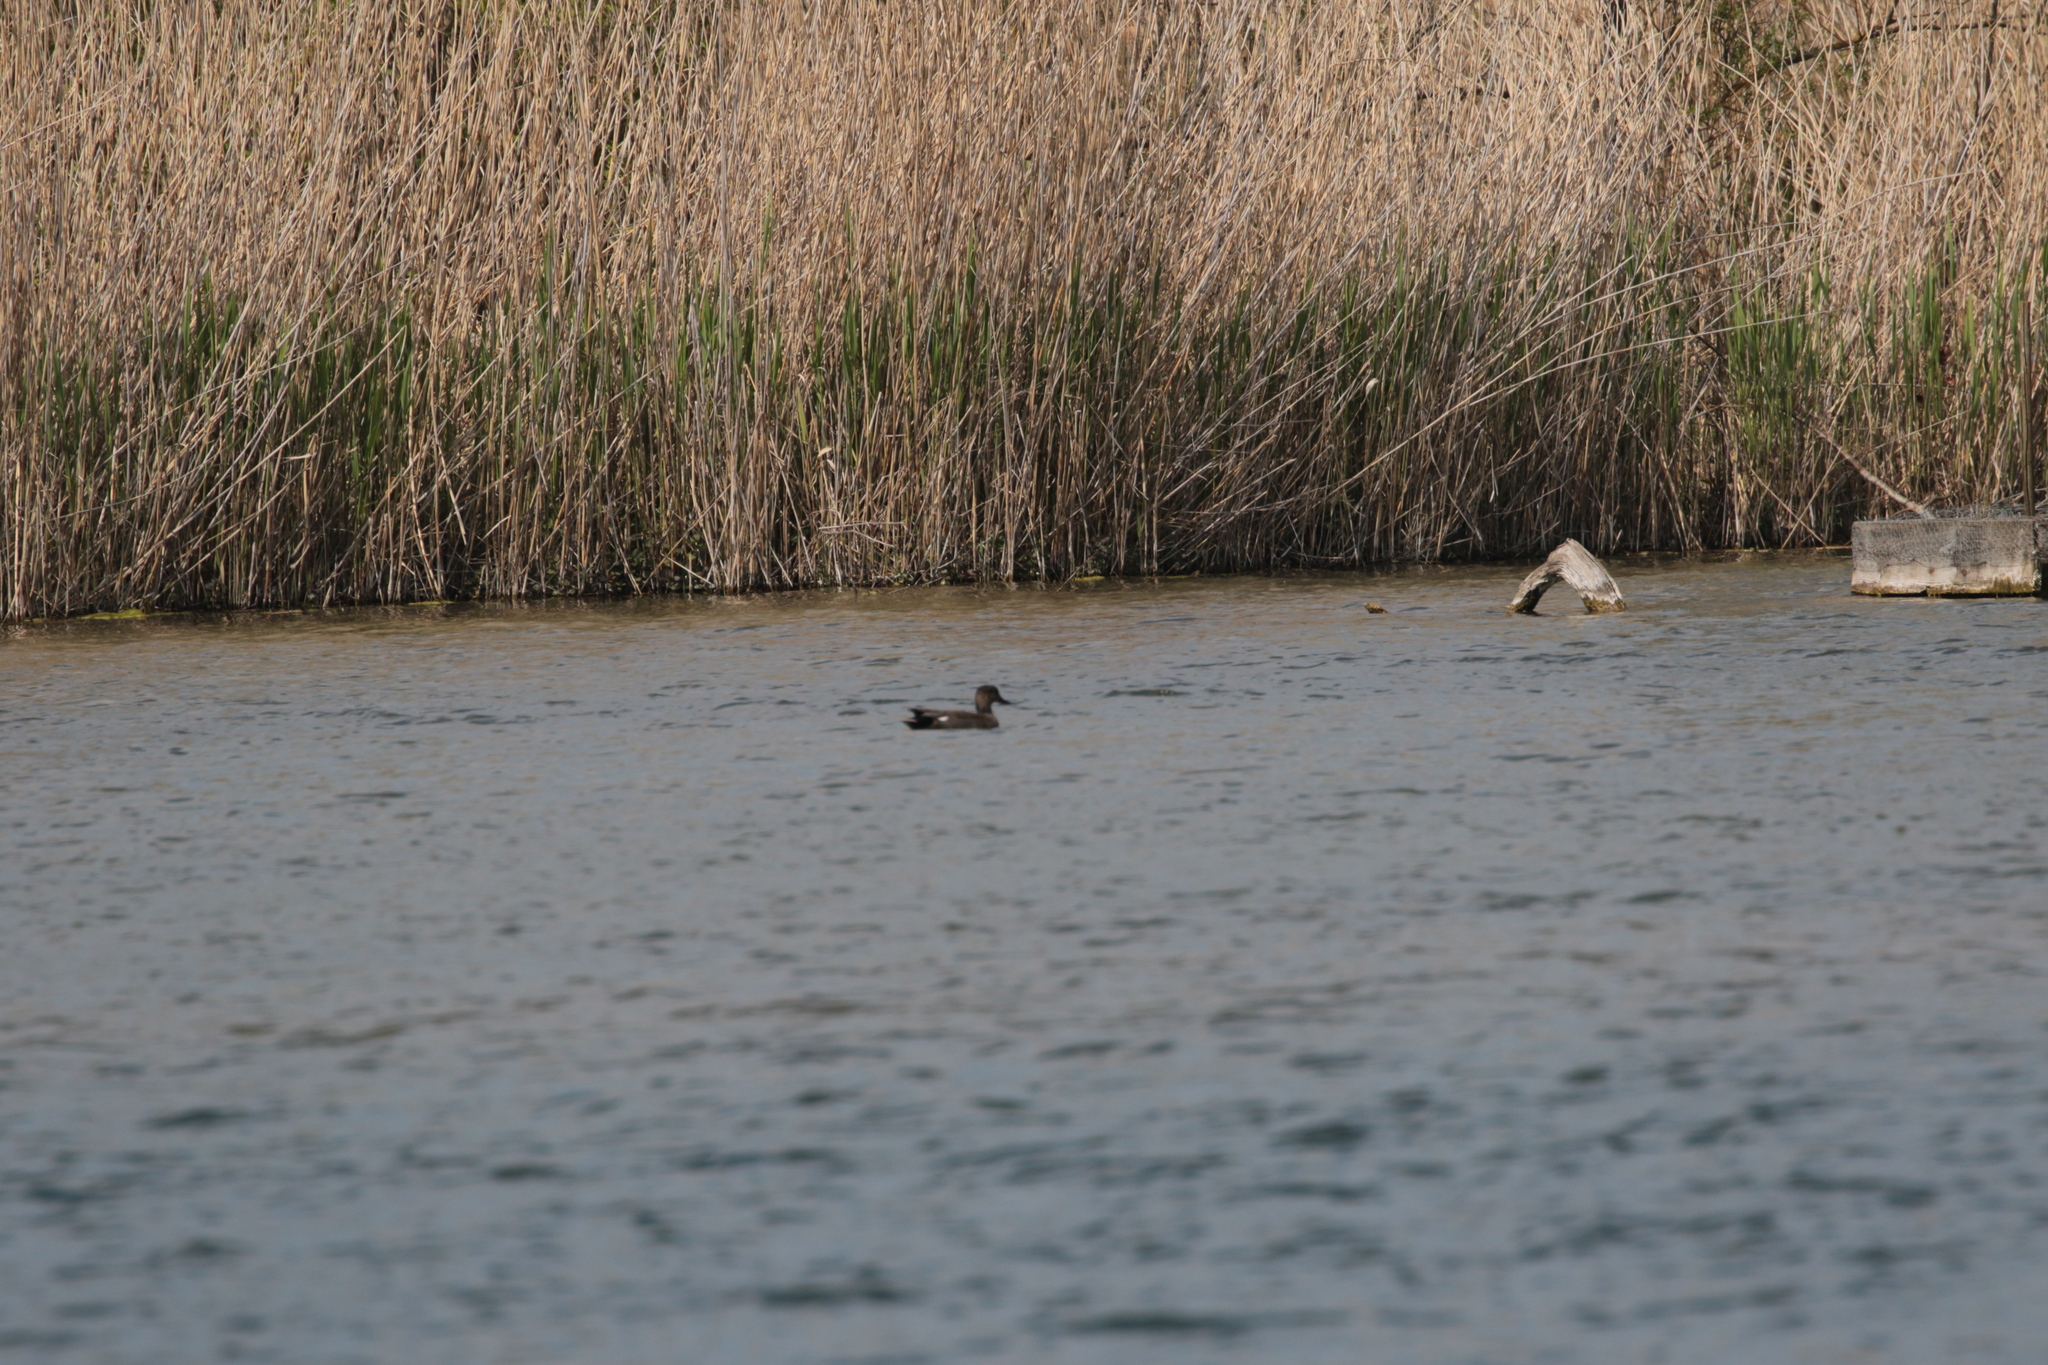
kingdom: Animalia
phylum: Chordata
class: Aves
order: Anseriformes
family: Anatidae
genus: Mareca
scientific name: Mareca strepera
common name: Gadwall
